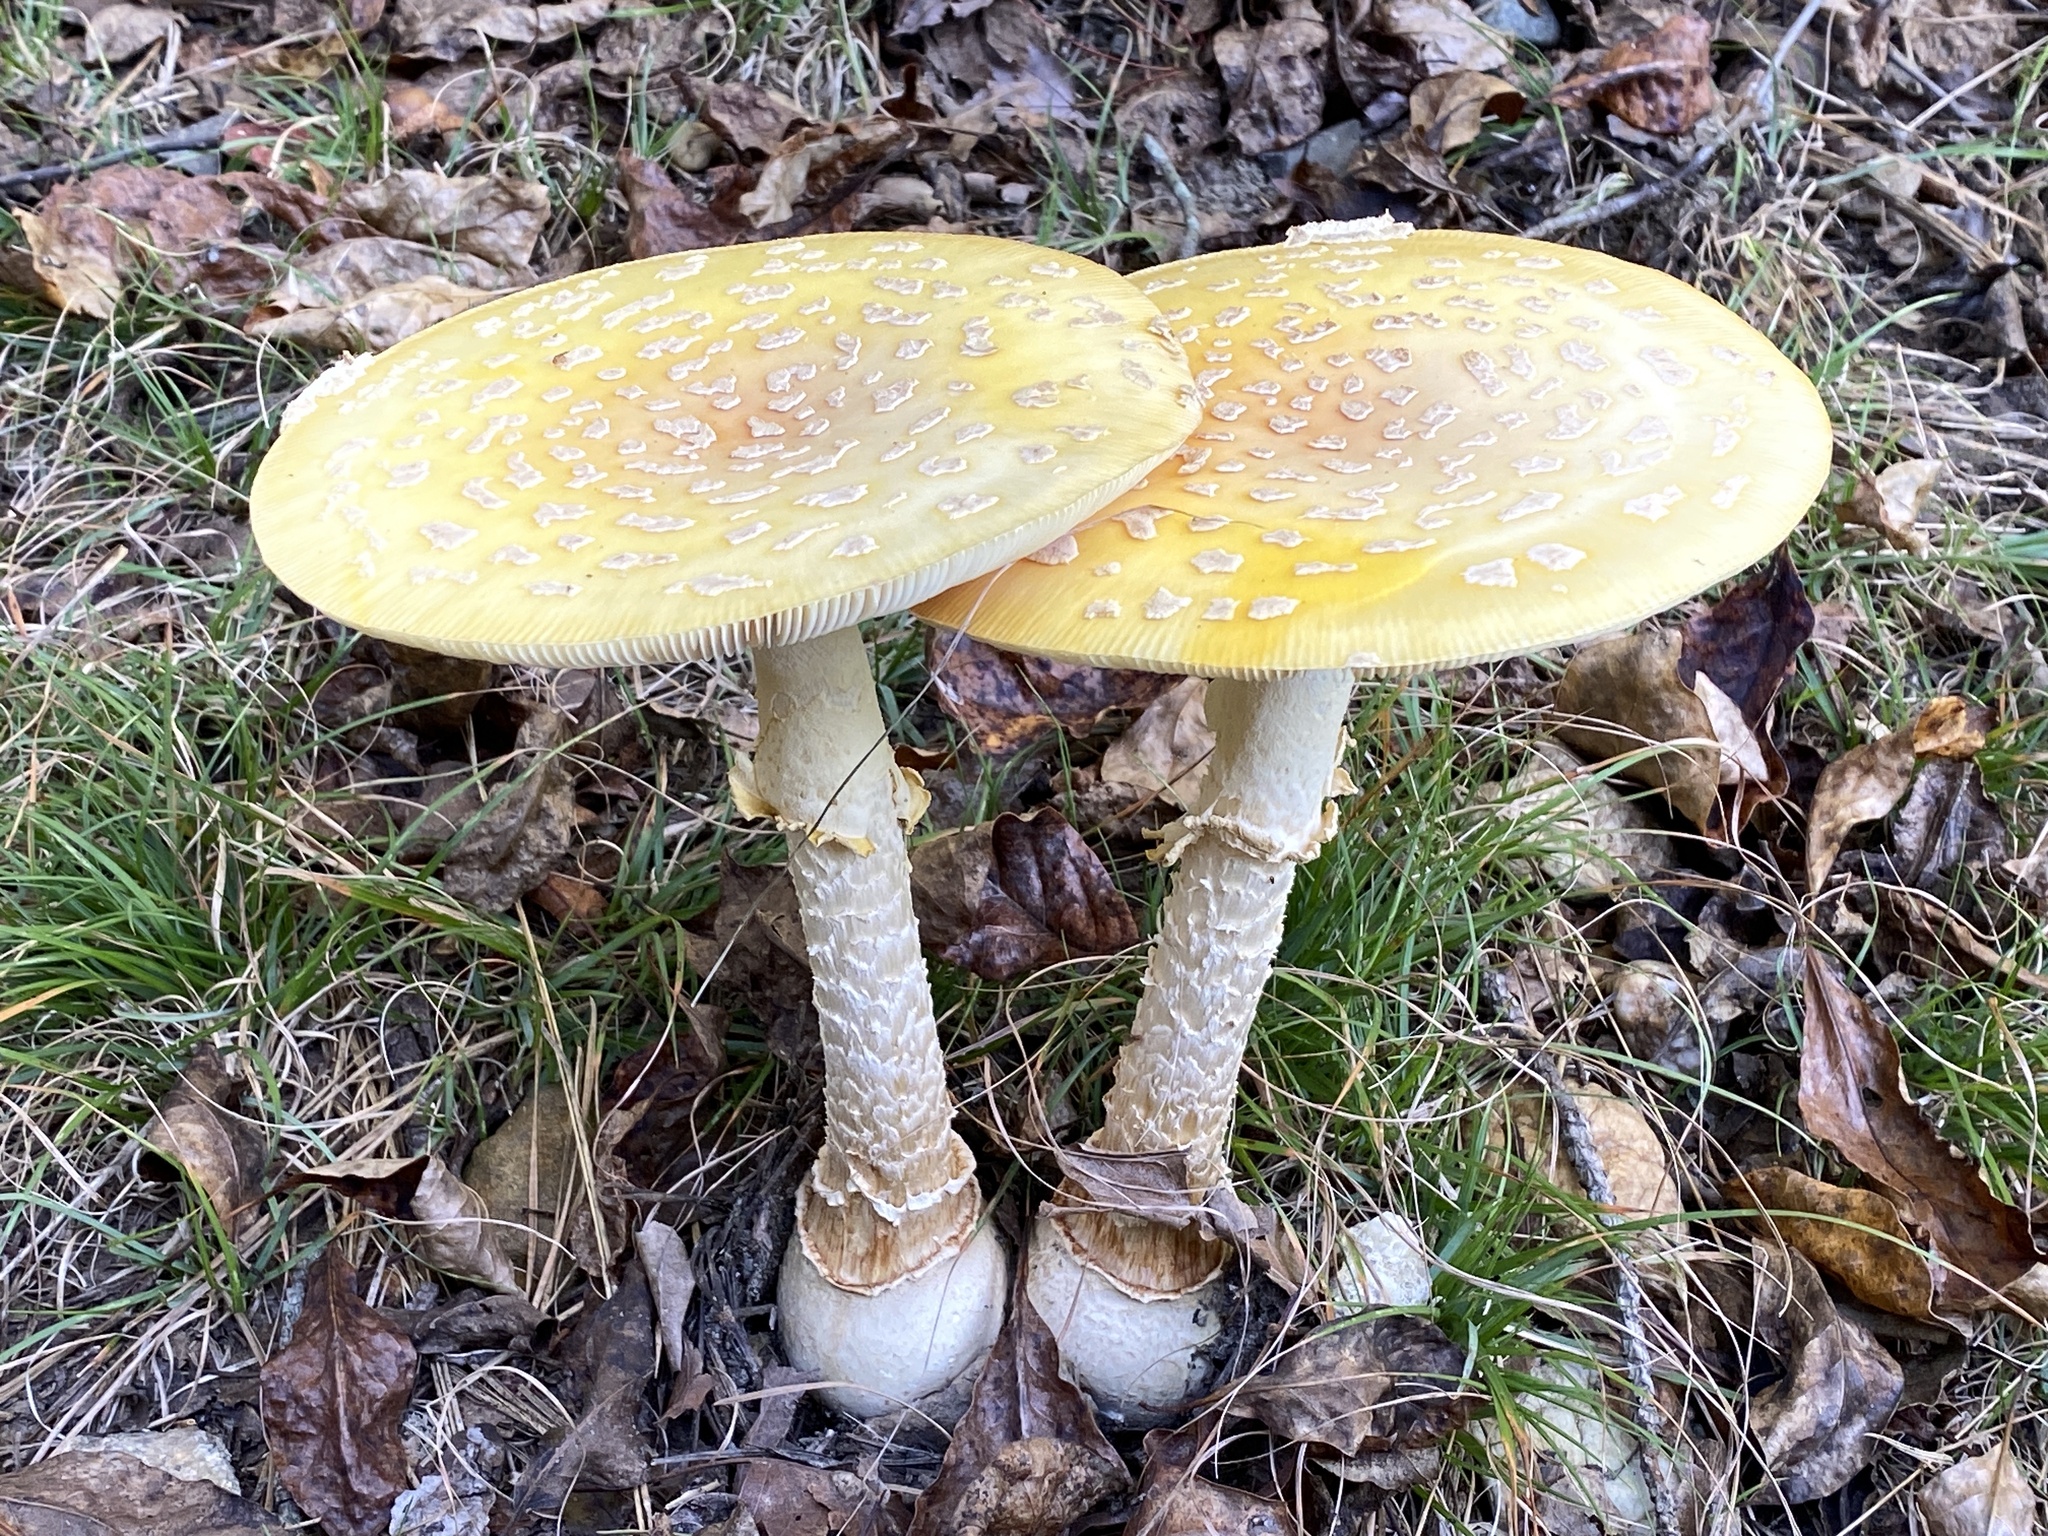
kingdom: Fungi
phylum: Basidiomycota
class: Agaricomycetes
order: Agaricales
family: Amanitaceae
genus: Amanita
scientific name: Amanita muscaria
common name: Fly agaric
